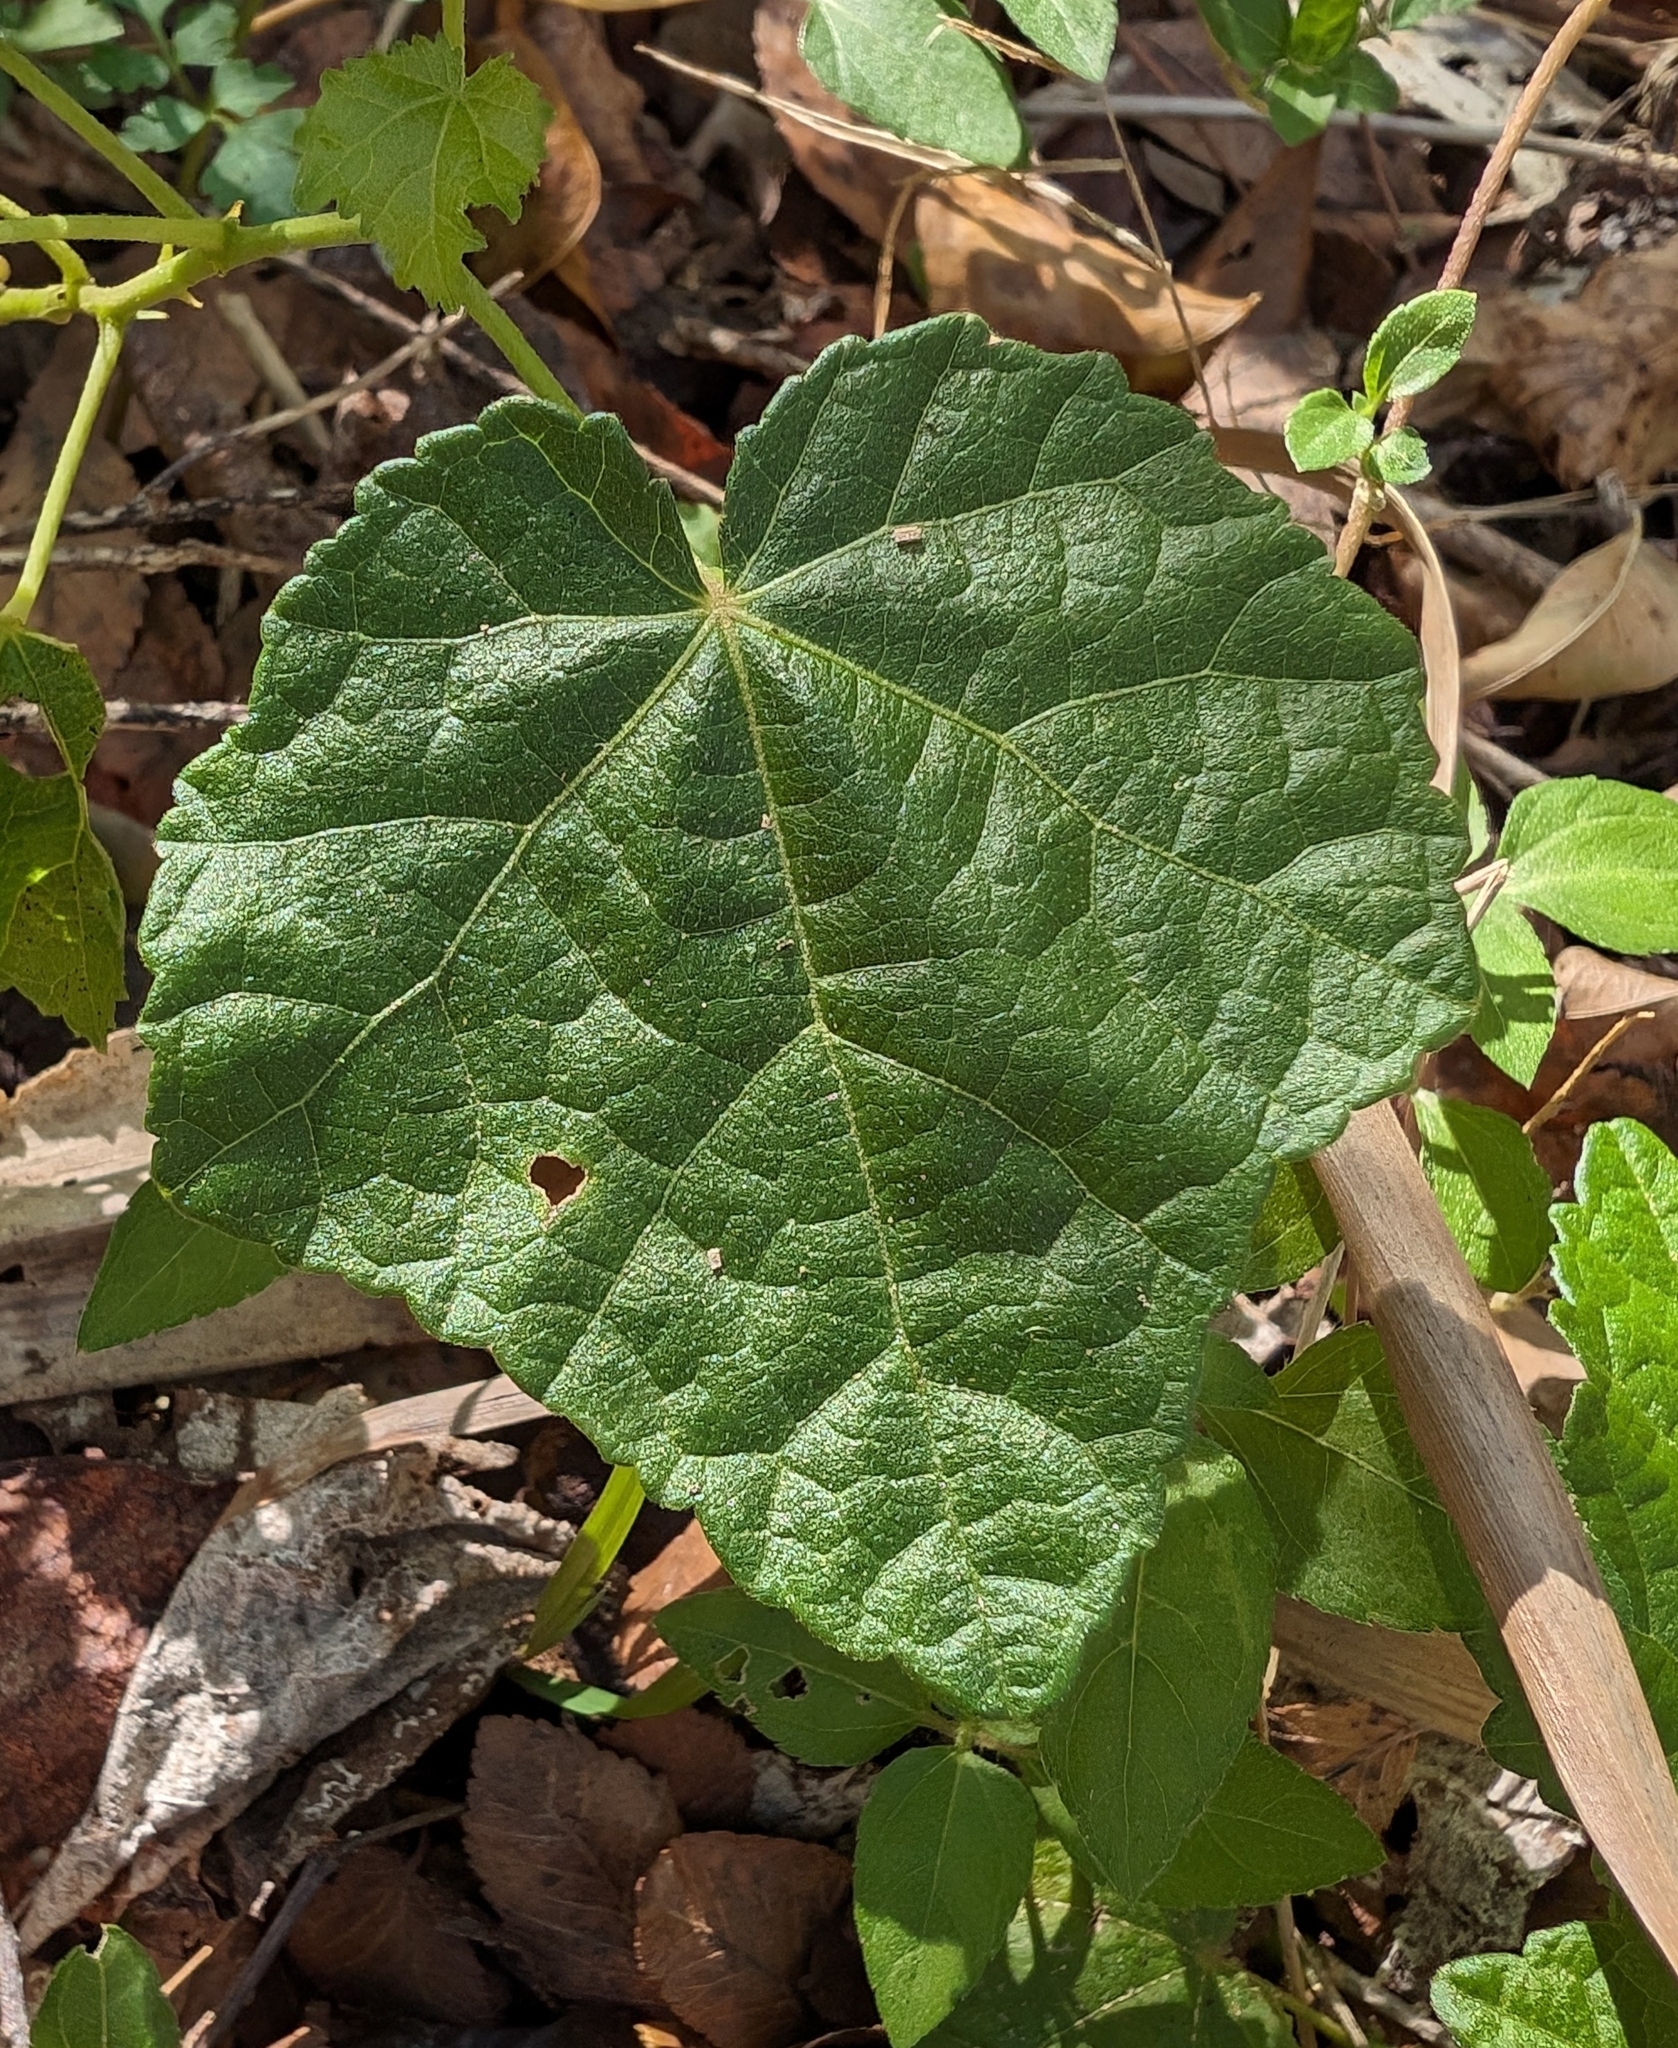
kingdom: Plantae
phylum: Tracheophyta
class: Magnoliopsida
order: Malvales
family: Malvaceae
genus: Malvaviscus
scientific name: Malvaviscus arboreus
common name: Wax mallow
